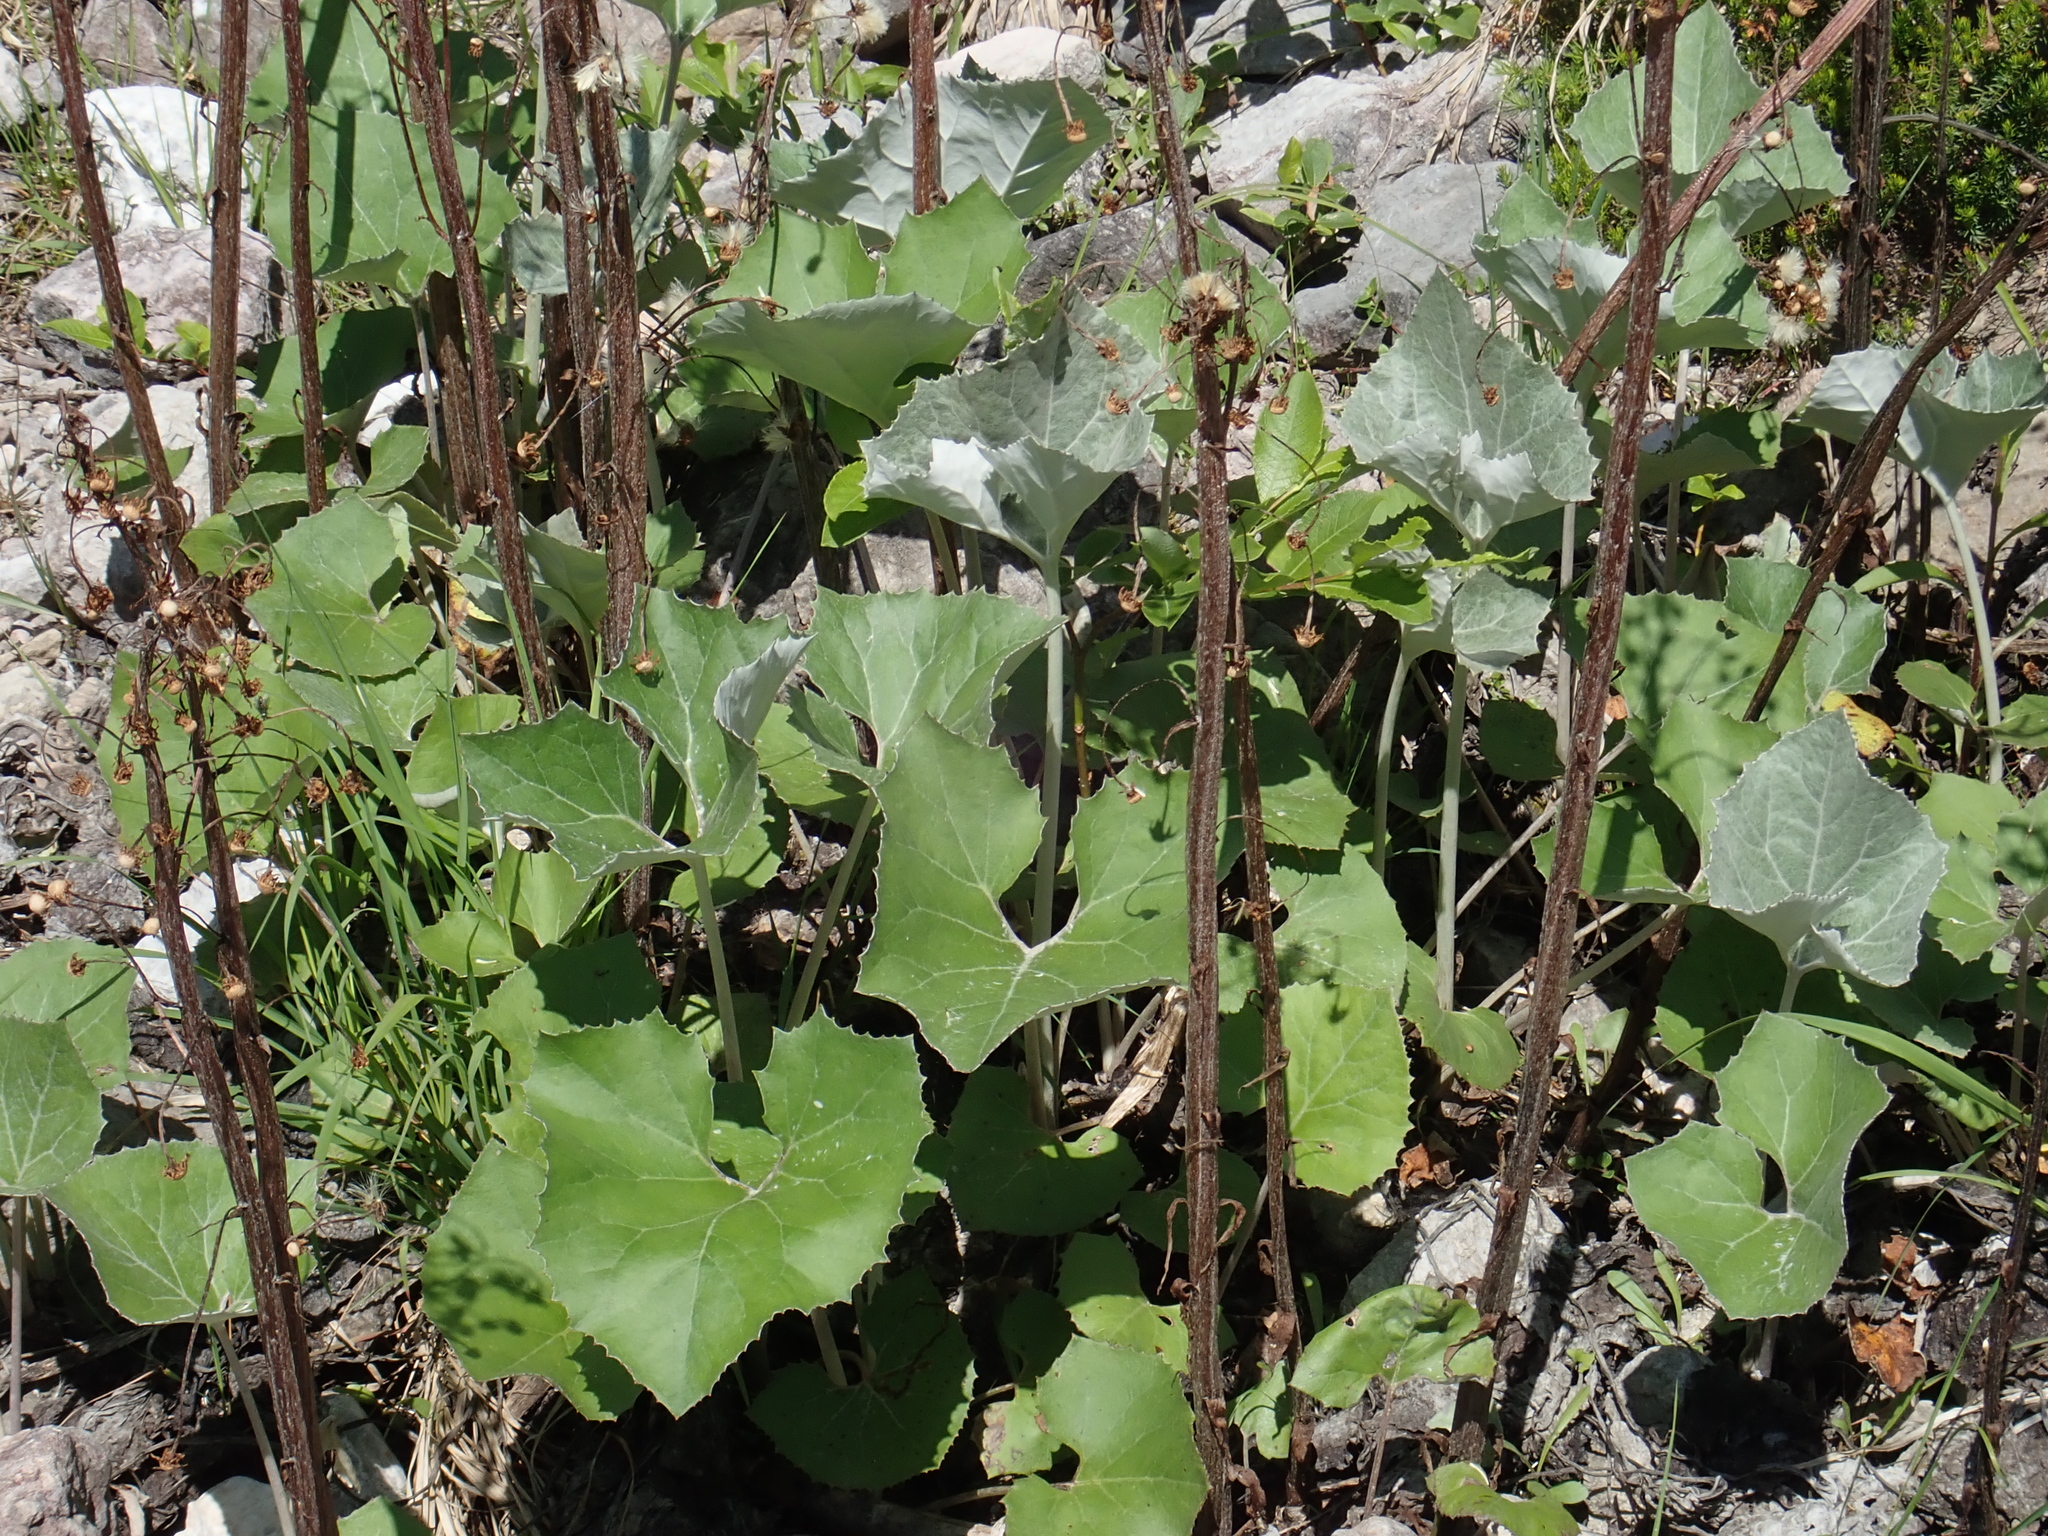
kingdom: Plantae
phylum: Tracheophyta
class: Magnoliopsida
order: Asterales
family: Asteraceae
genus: Petasites
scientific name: Petasites paradoxus
